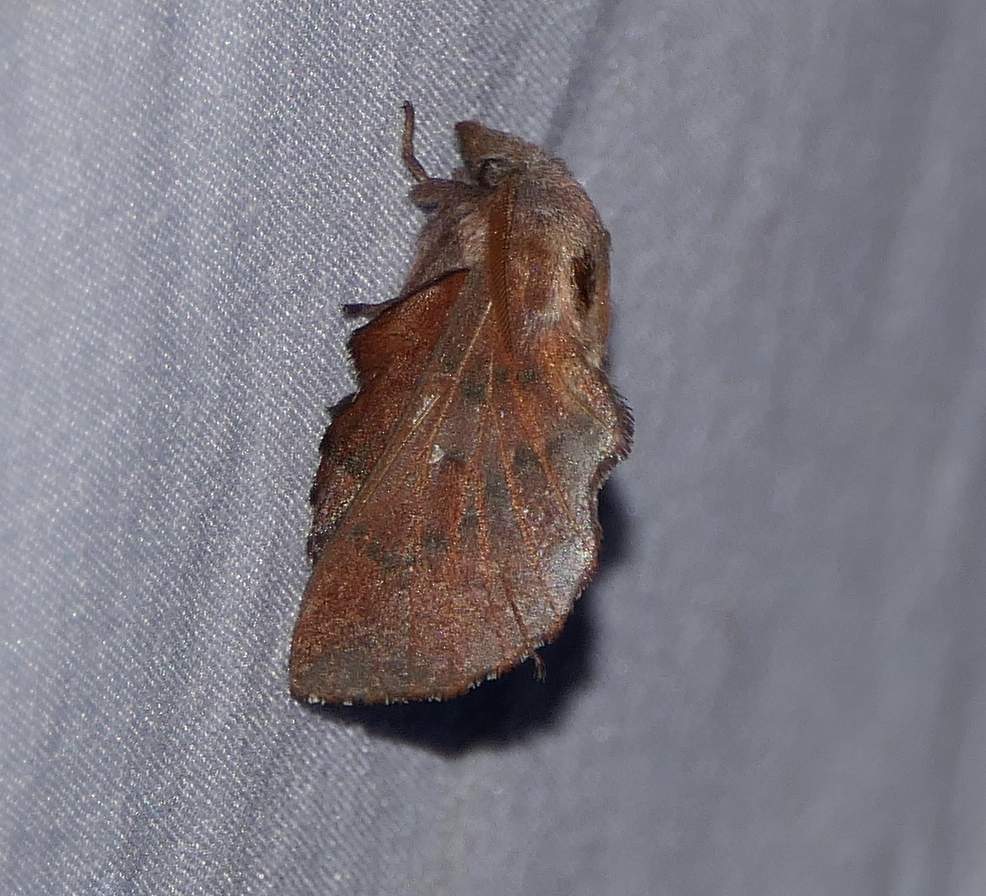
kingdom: Animalia
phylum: Arthropoda
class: Insecta
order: Lepidoptera
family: Lasiocampidae
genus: Phyllodesma
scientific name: Phyllodesma americana
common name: American lappet moth
